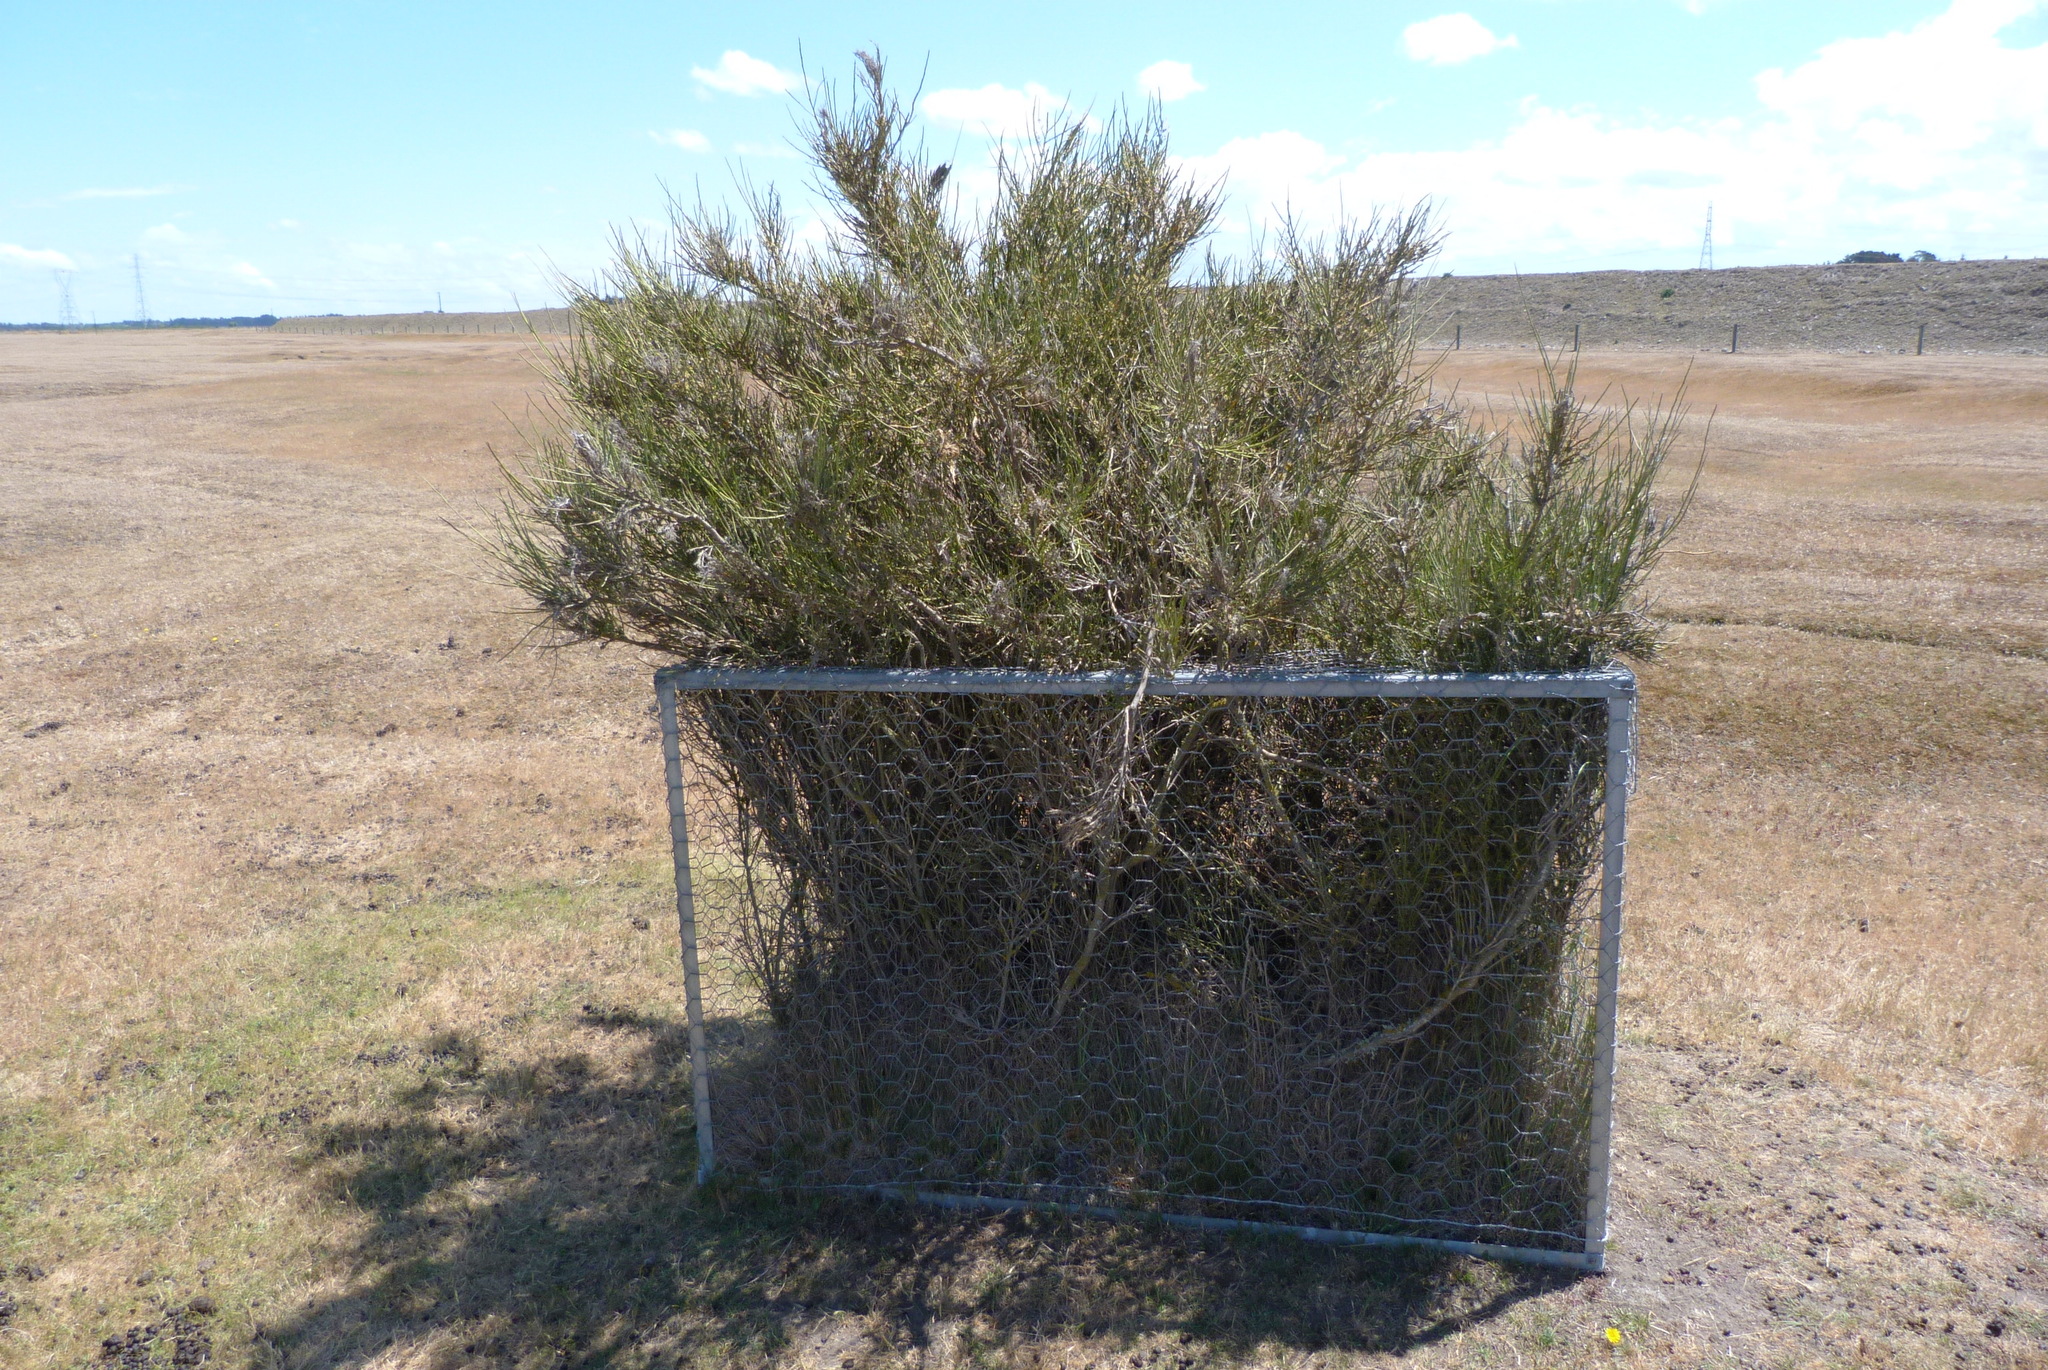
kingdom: Plantae
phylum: Tracheophyta
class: Magnoliopsida
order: Fabales
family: Fabaceae
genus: Carmichaelia
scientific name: Carmichaelia australis
